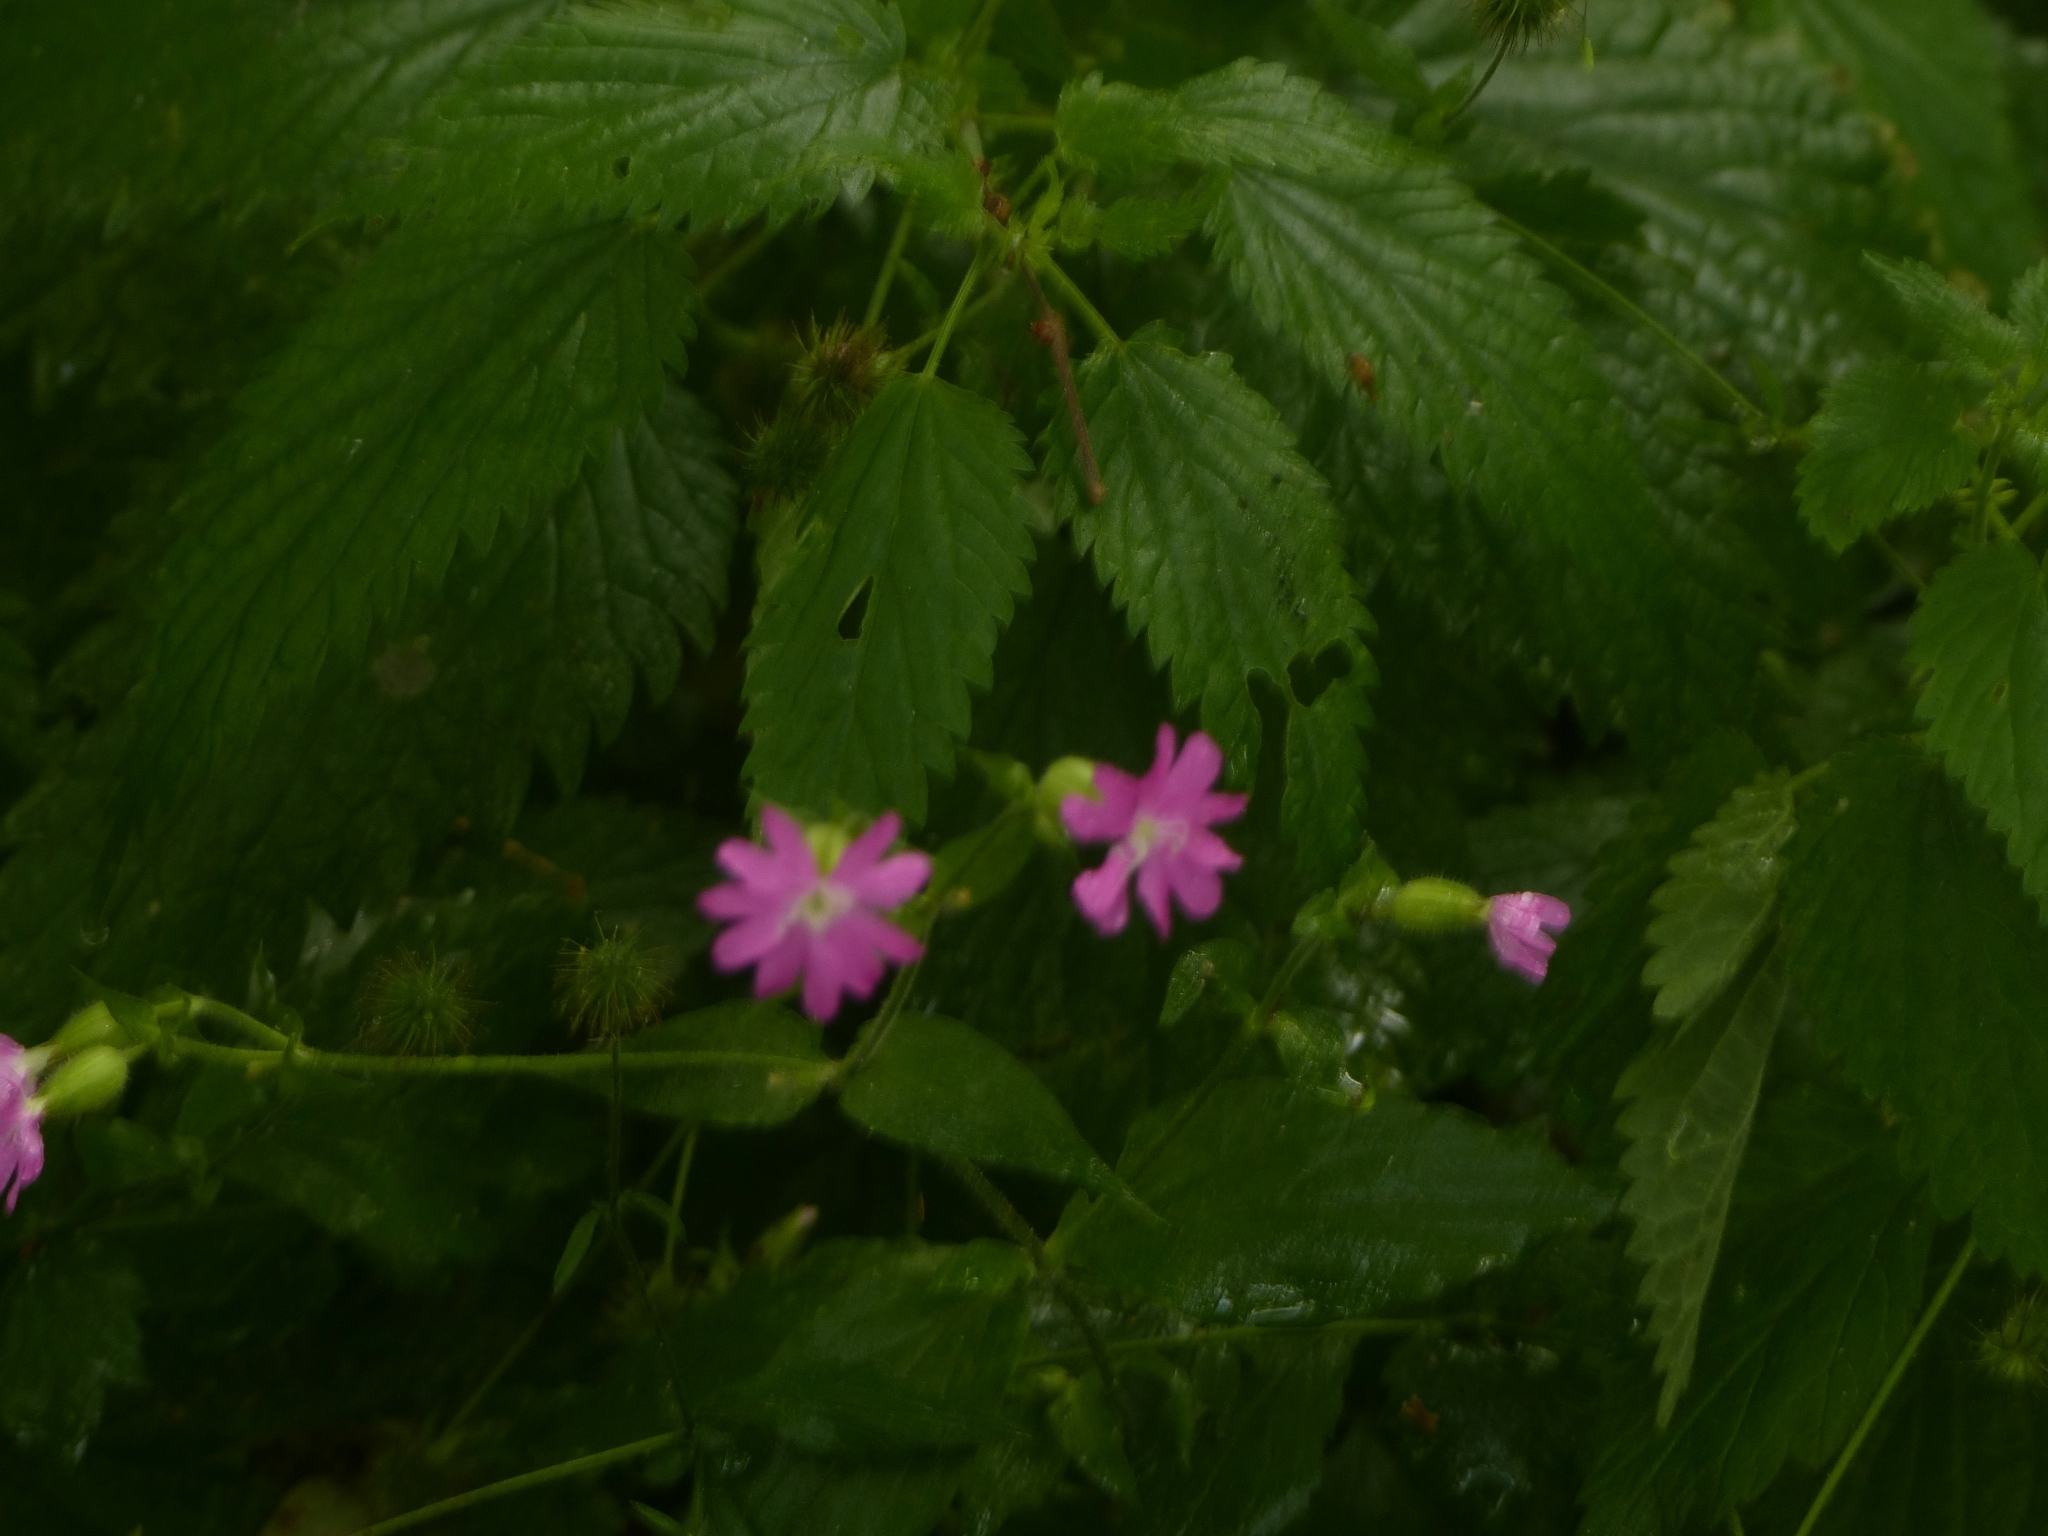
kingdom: Plantae
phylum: Tracheophyta
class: Magnoliopsida
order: Caryophyllales
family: Caryophyllaceae
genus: Silene
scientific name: Silene dioica
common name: Red campion
